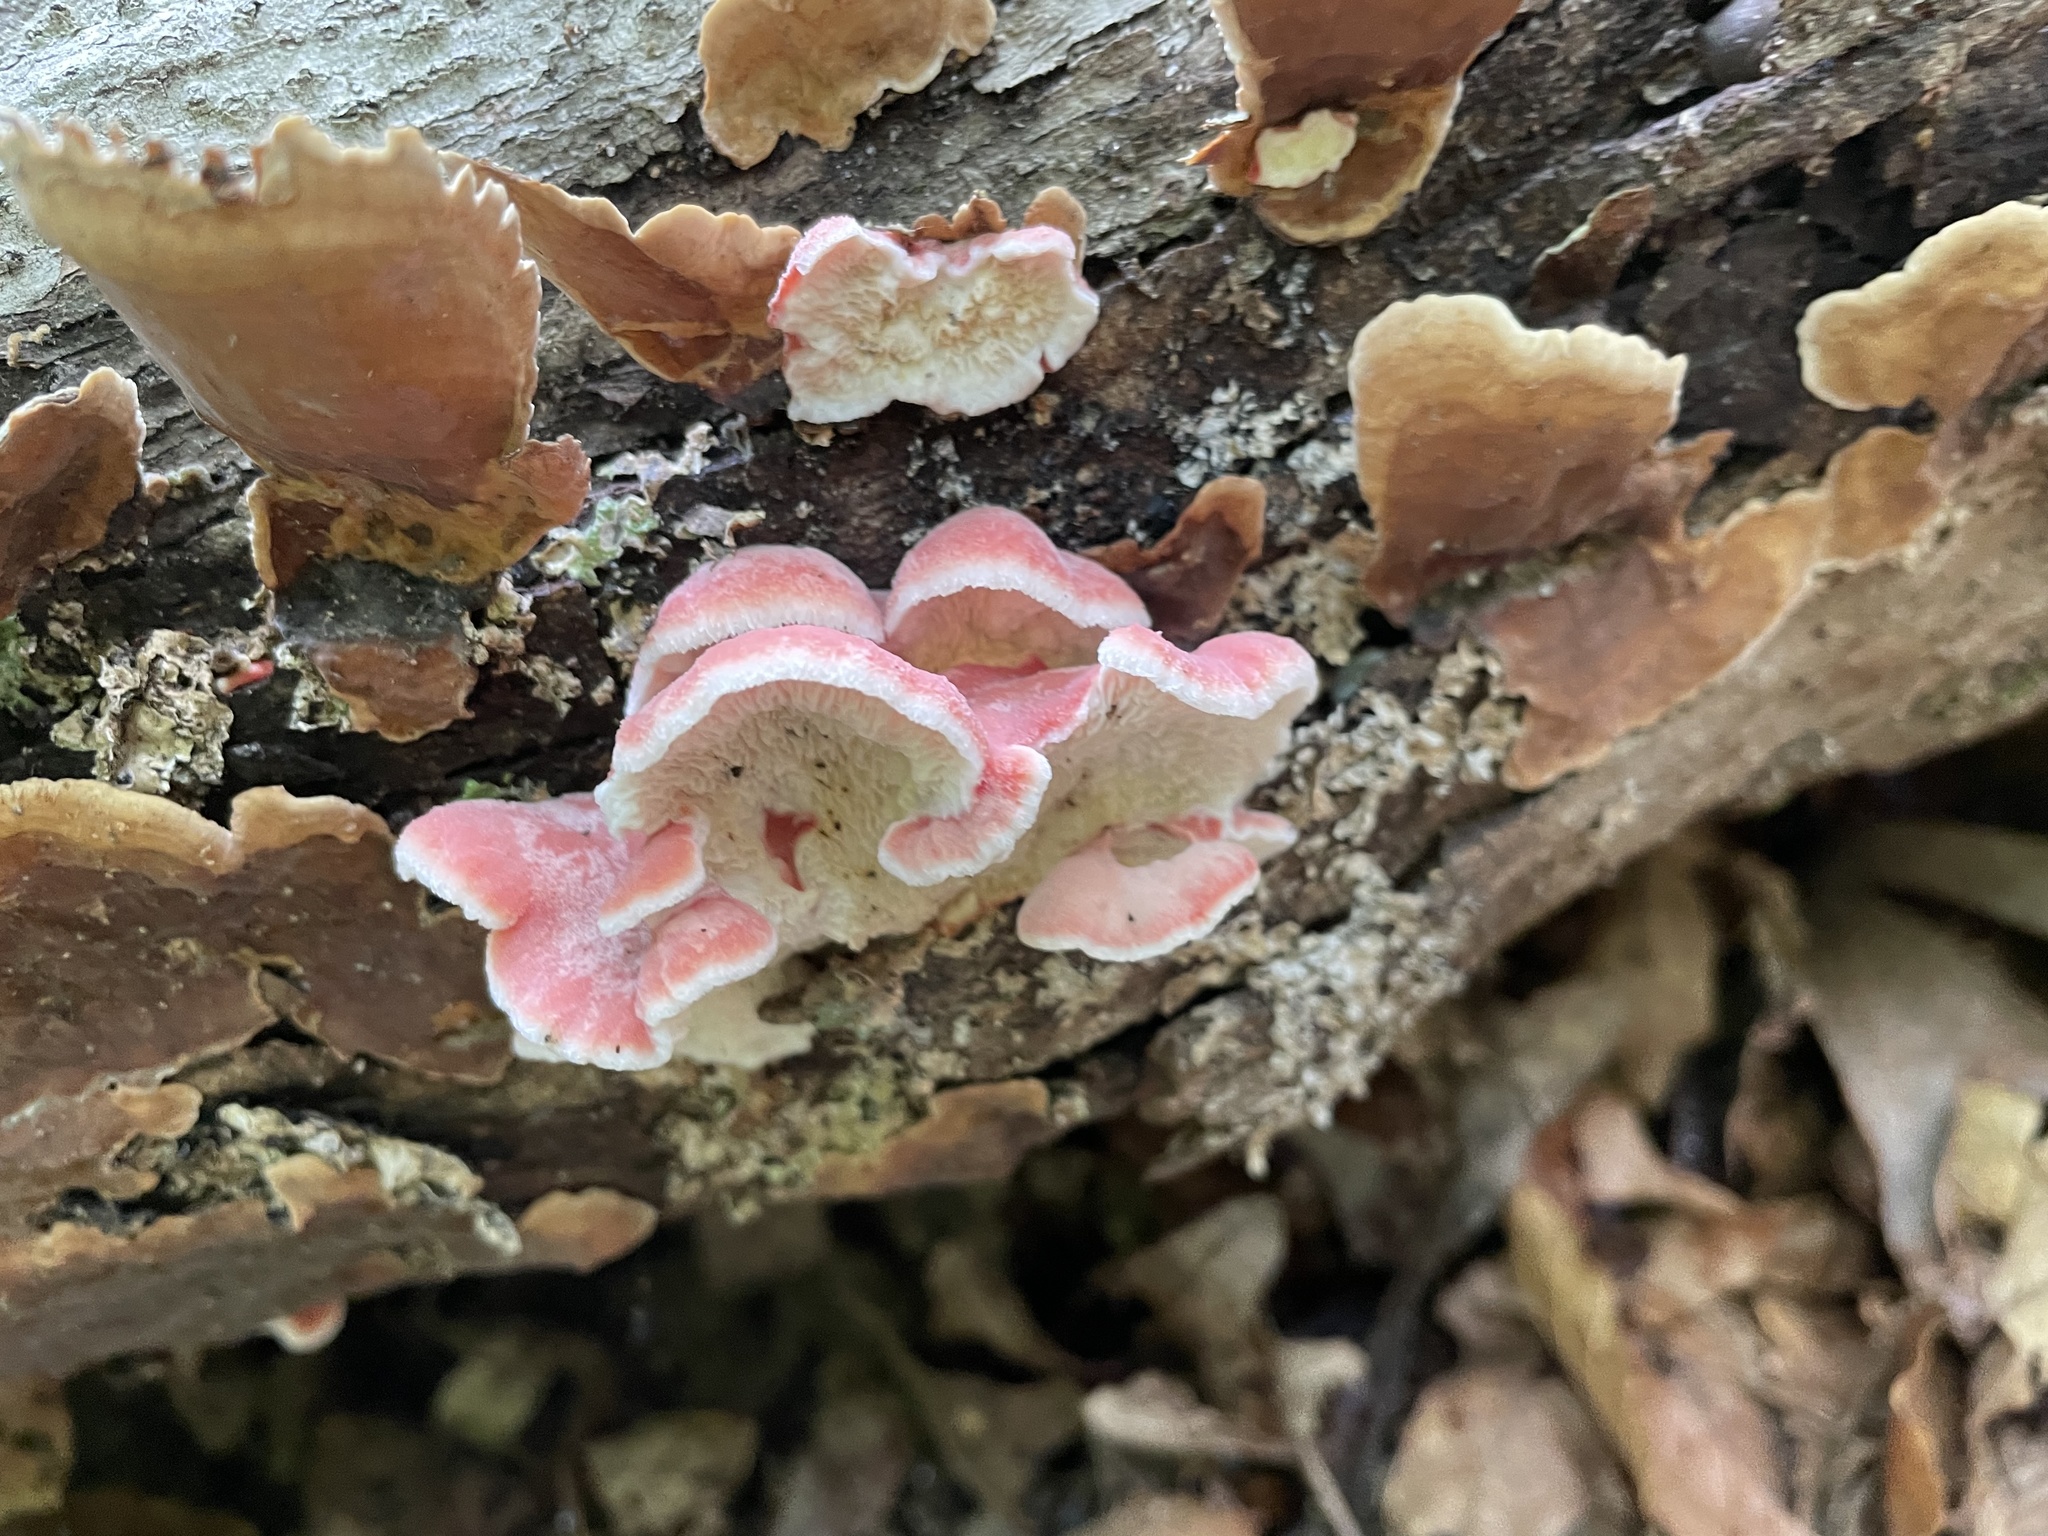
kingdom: Fungi
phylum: Basidiomycota
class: Agaricomycetes
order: Polyporales
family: Irpicaceae
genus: Byssomerulius
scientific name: Byssomerulius incarnatus
